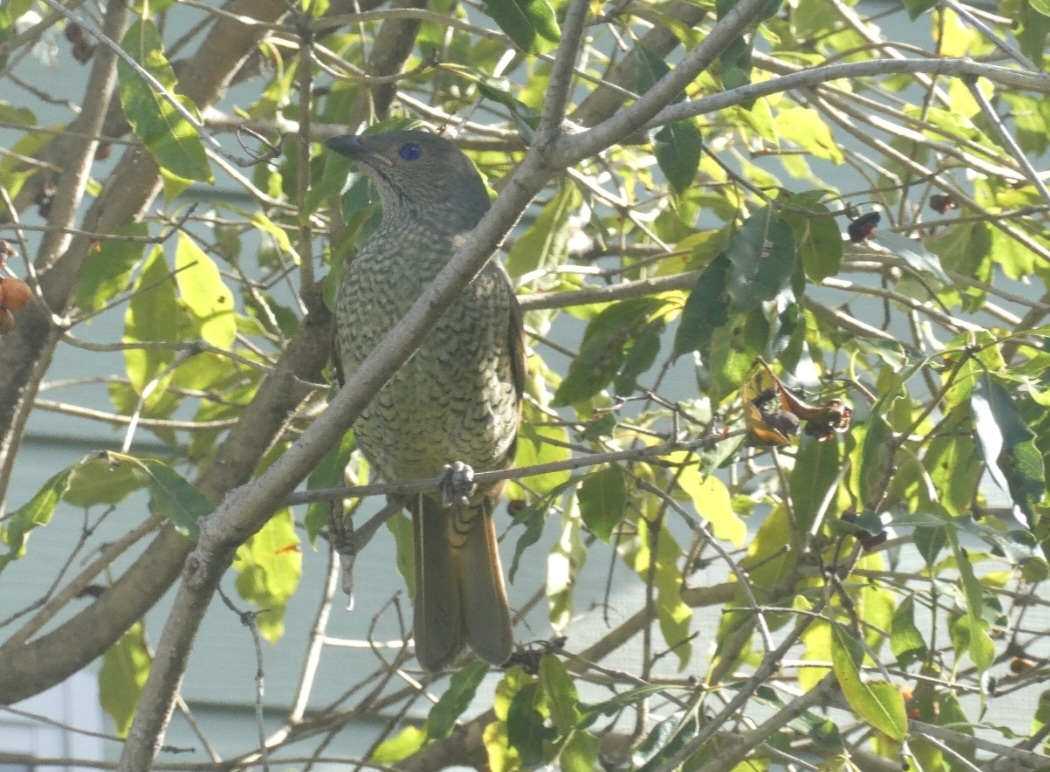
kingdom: Animalia
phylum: Chordata
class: Aves
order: Passeriformes
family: Ptilonorhynchidae
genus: Ptilonorhynchus
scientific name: Ptilonorhynchus violaceus
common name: Satin bowerbird
